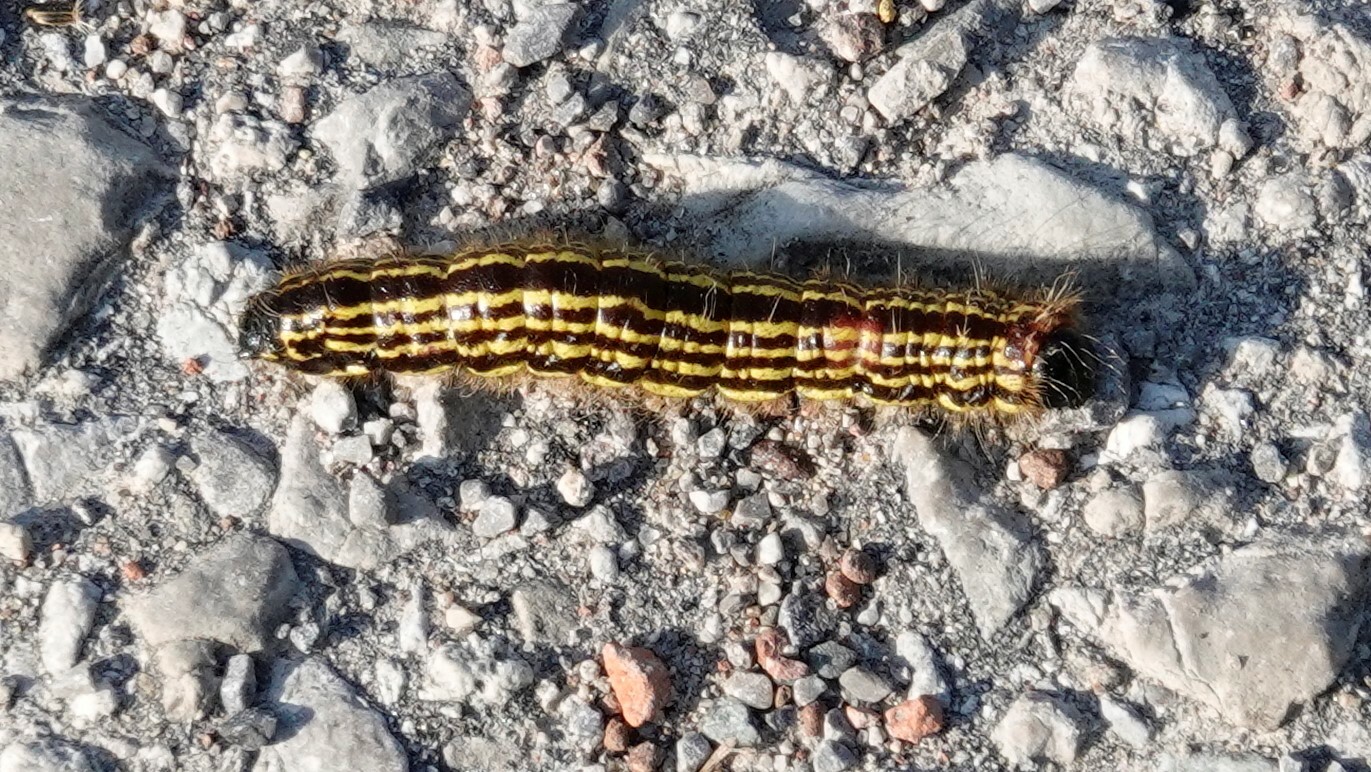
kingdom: Animalia
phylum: Arthropoda
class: Insecta
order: Lepidoptera
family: Notodontidae
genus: Datana
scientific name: Datana perspicua
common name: Spotted datana
